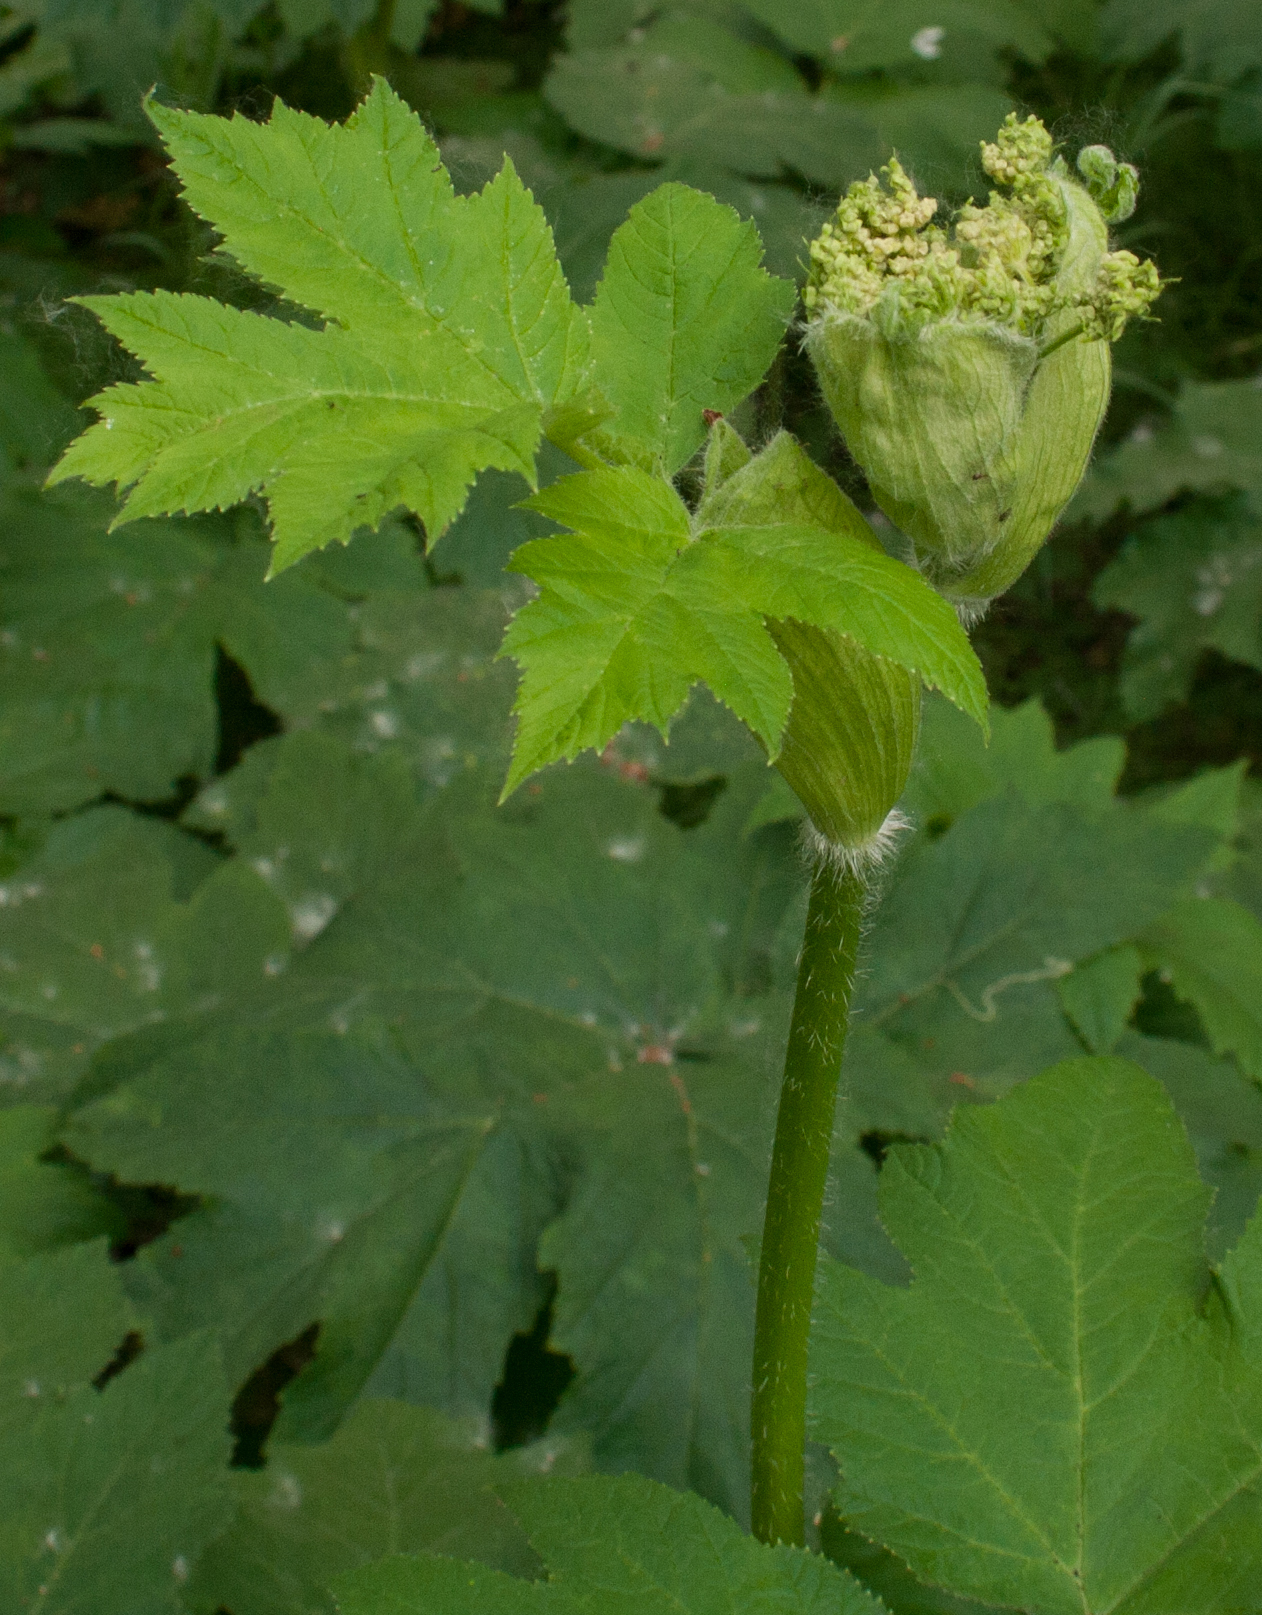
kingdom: Plantae
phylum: Tracheophyta
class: Magnoliopsida
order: Apiales
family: Apiaceae
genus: Heracleum
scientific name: Heracleum maximum
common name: American cow parsnip
